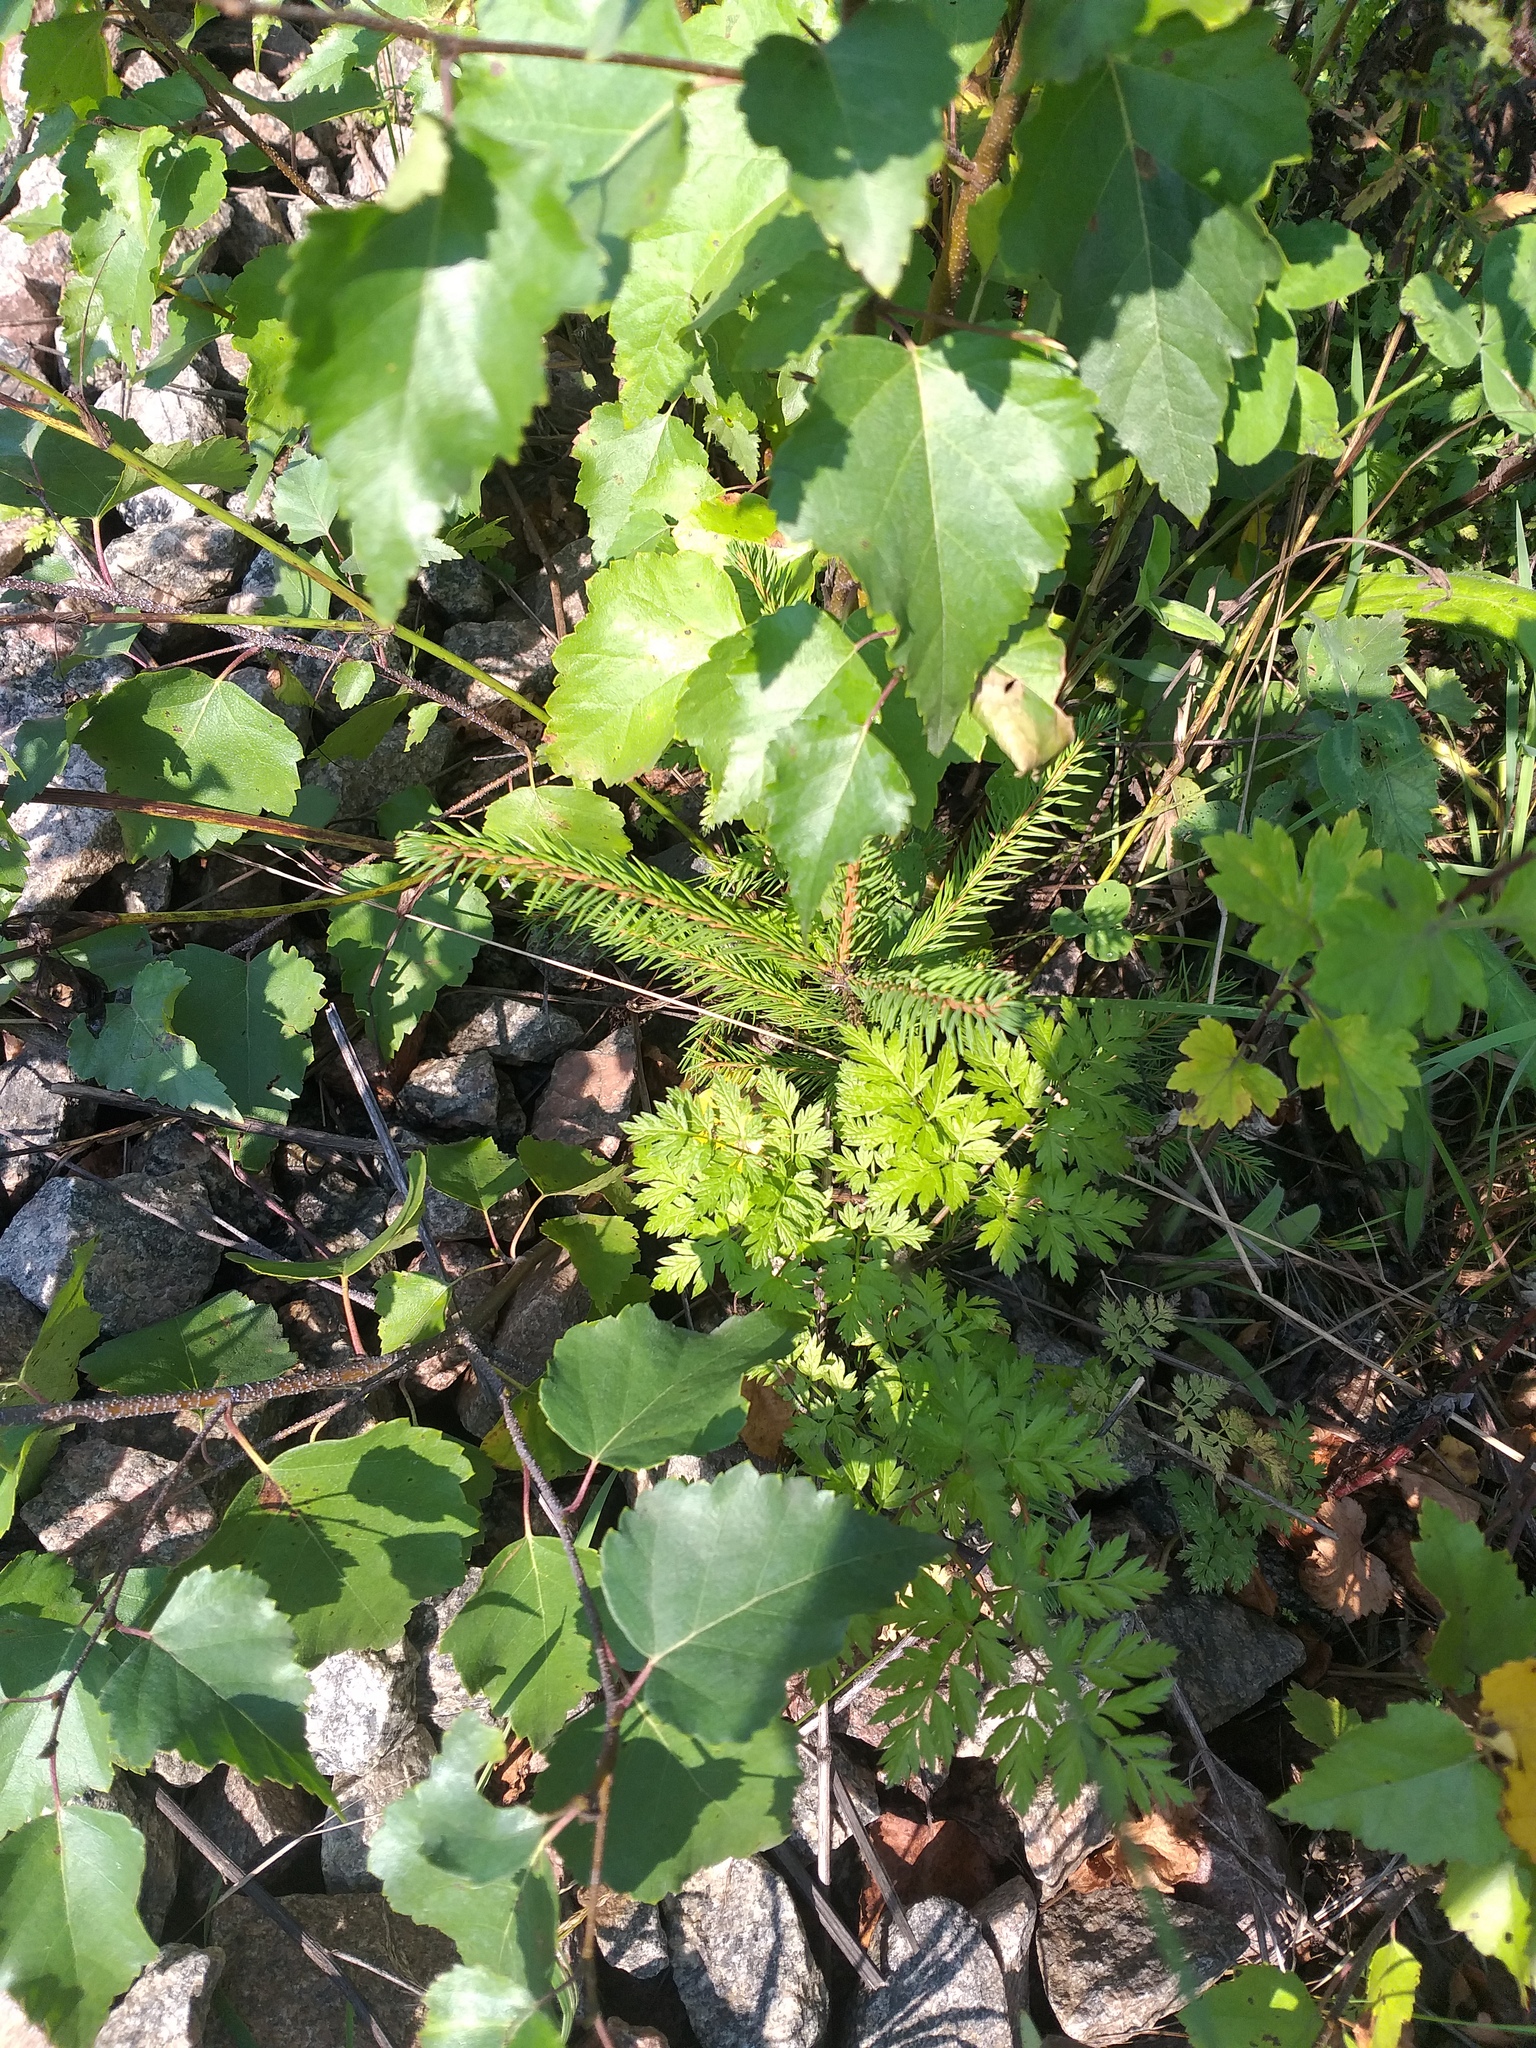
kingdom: Plantae
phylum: Tracheophyta
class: Pinopsida
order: Pinales
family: Pinaceae
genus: Picea
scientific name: Picea abies
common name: Norway spruce
